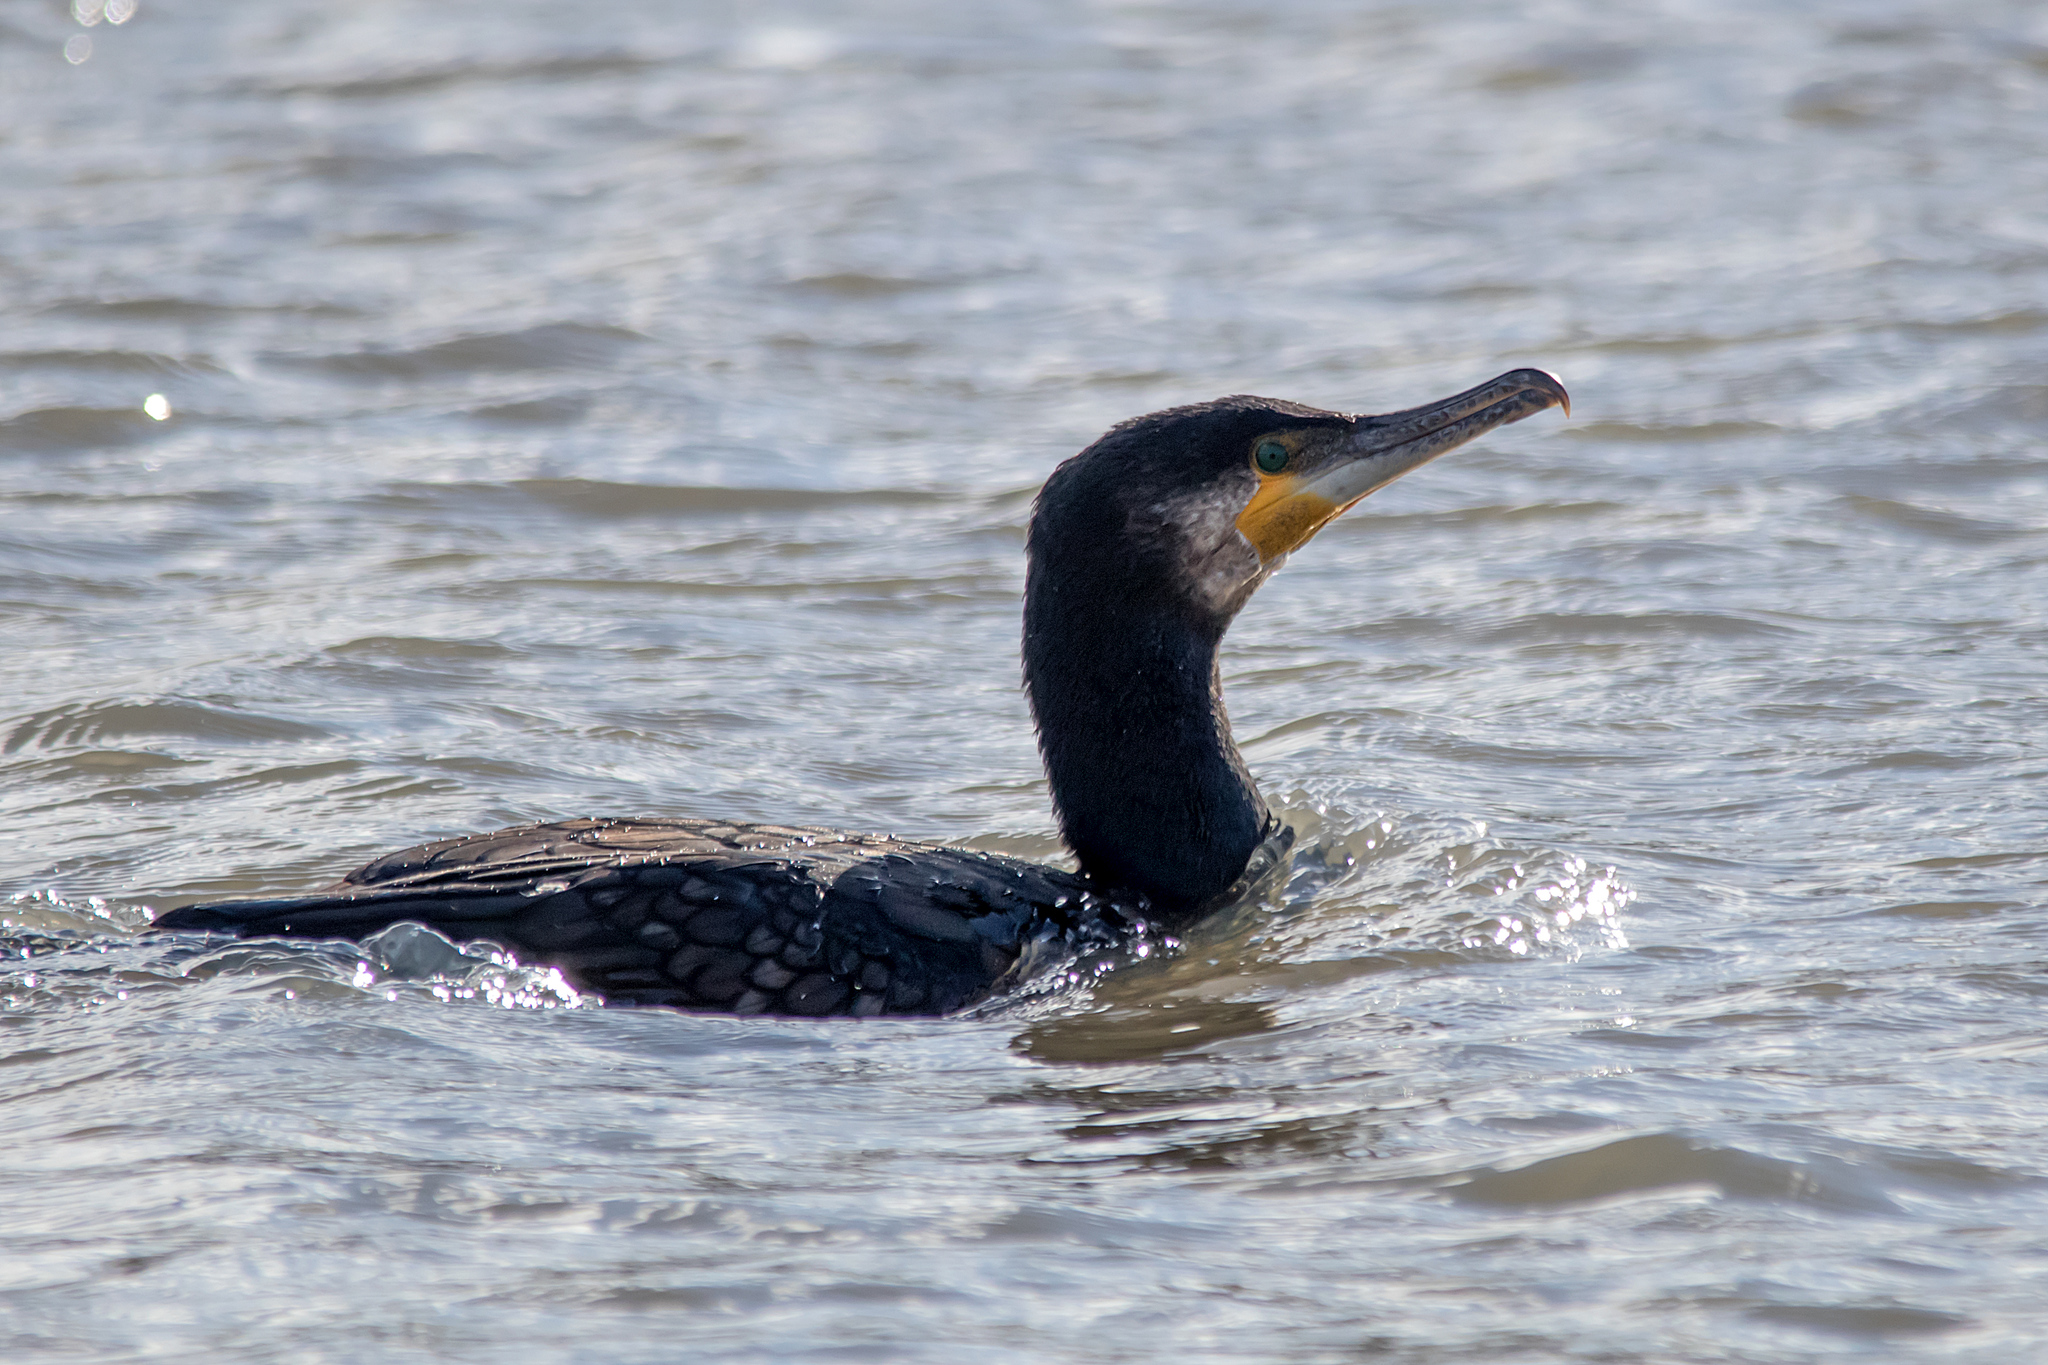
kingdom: Animalia
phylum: Chordata
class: Aves
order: Suliformes
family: Phalacrocoracidae
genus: Phalacrocorax
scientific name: Phalacrocorax carbo
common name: Great cormorant
